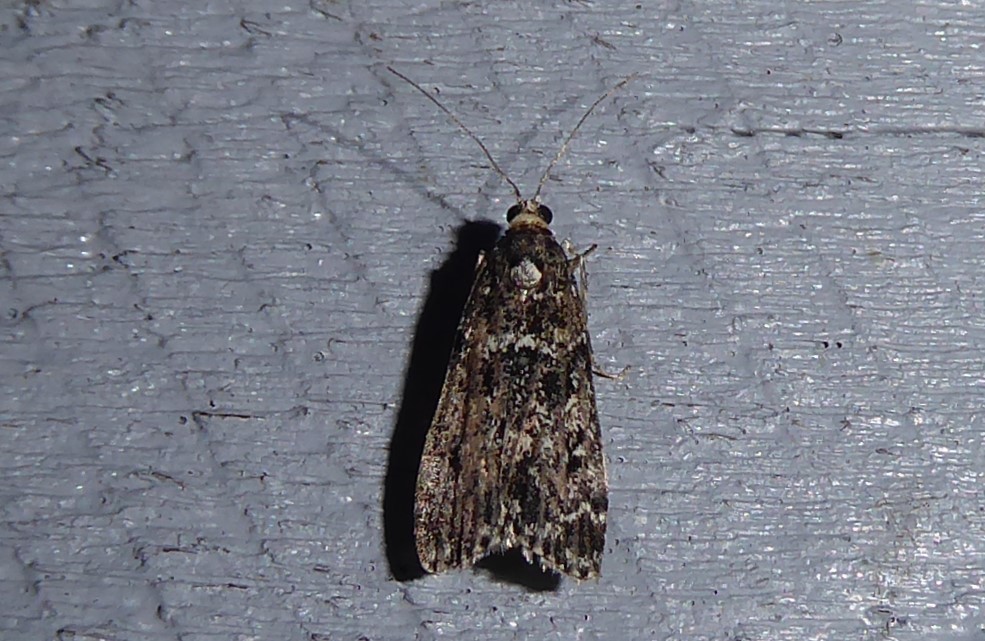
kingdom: Animalia
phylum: Arthropoda
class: Insecta
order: Lepidoptera
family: Crambidae
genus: Eudonia
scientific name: Eudonia philerga
